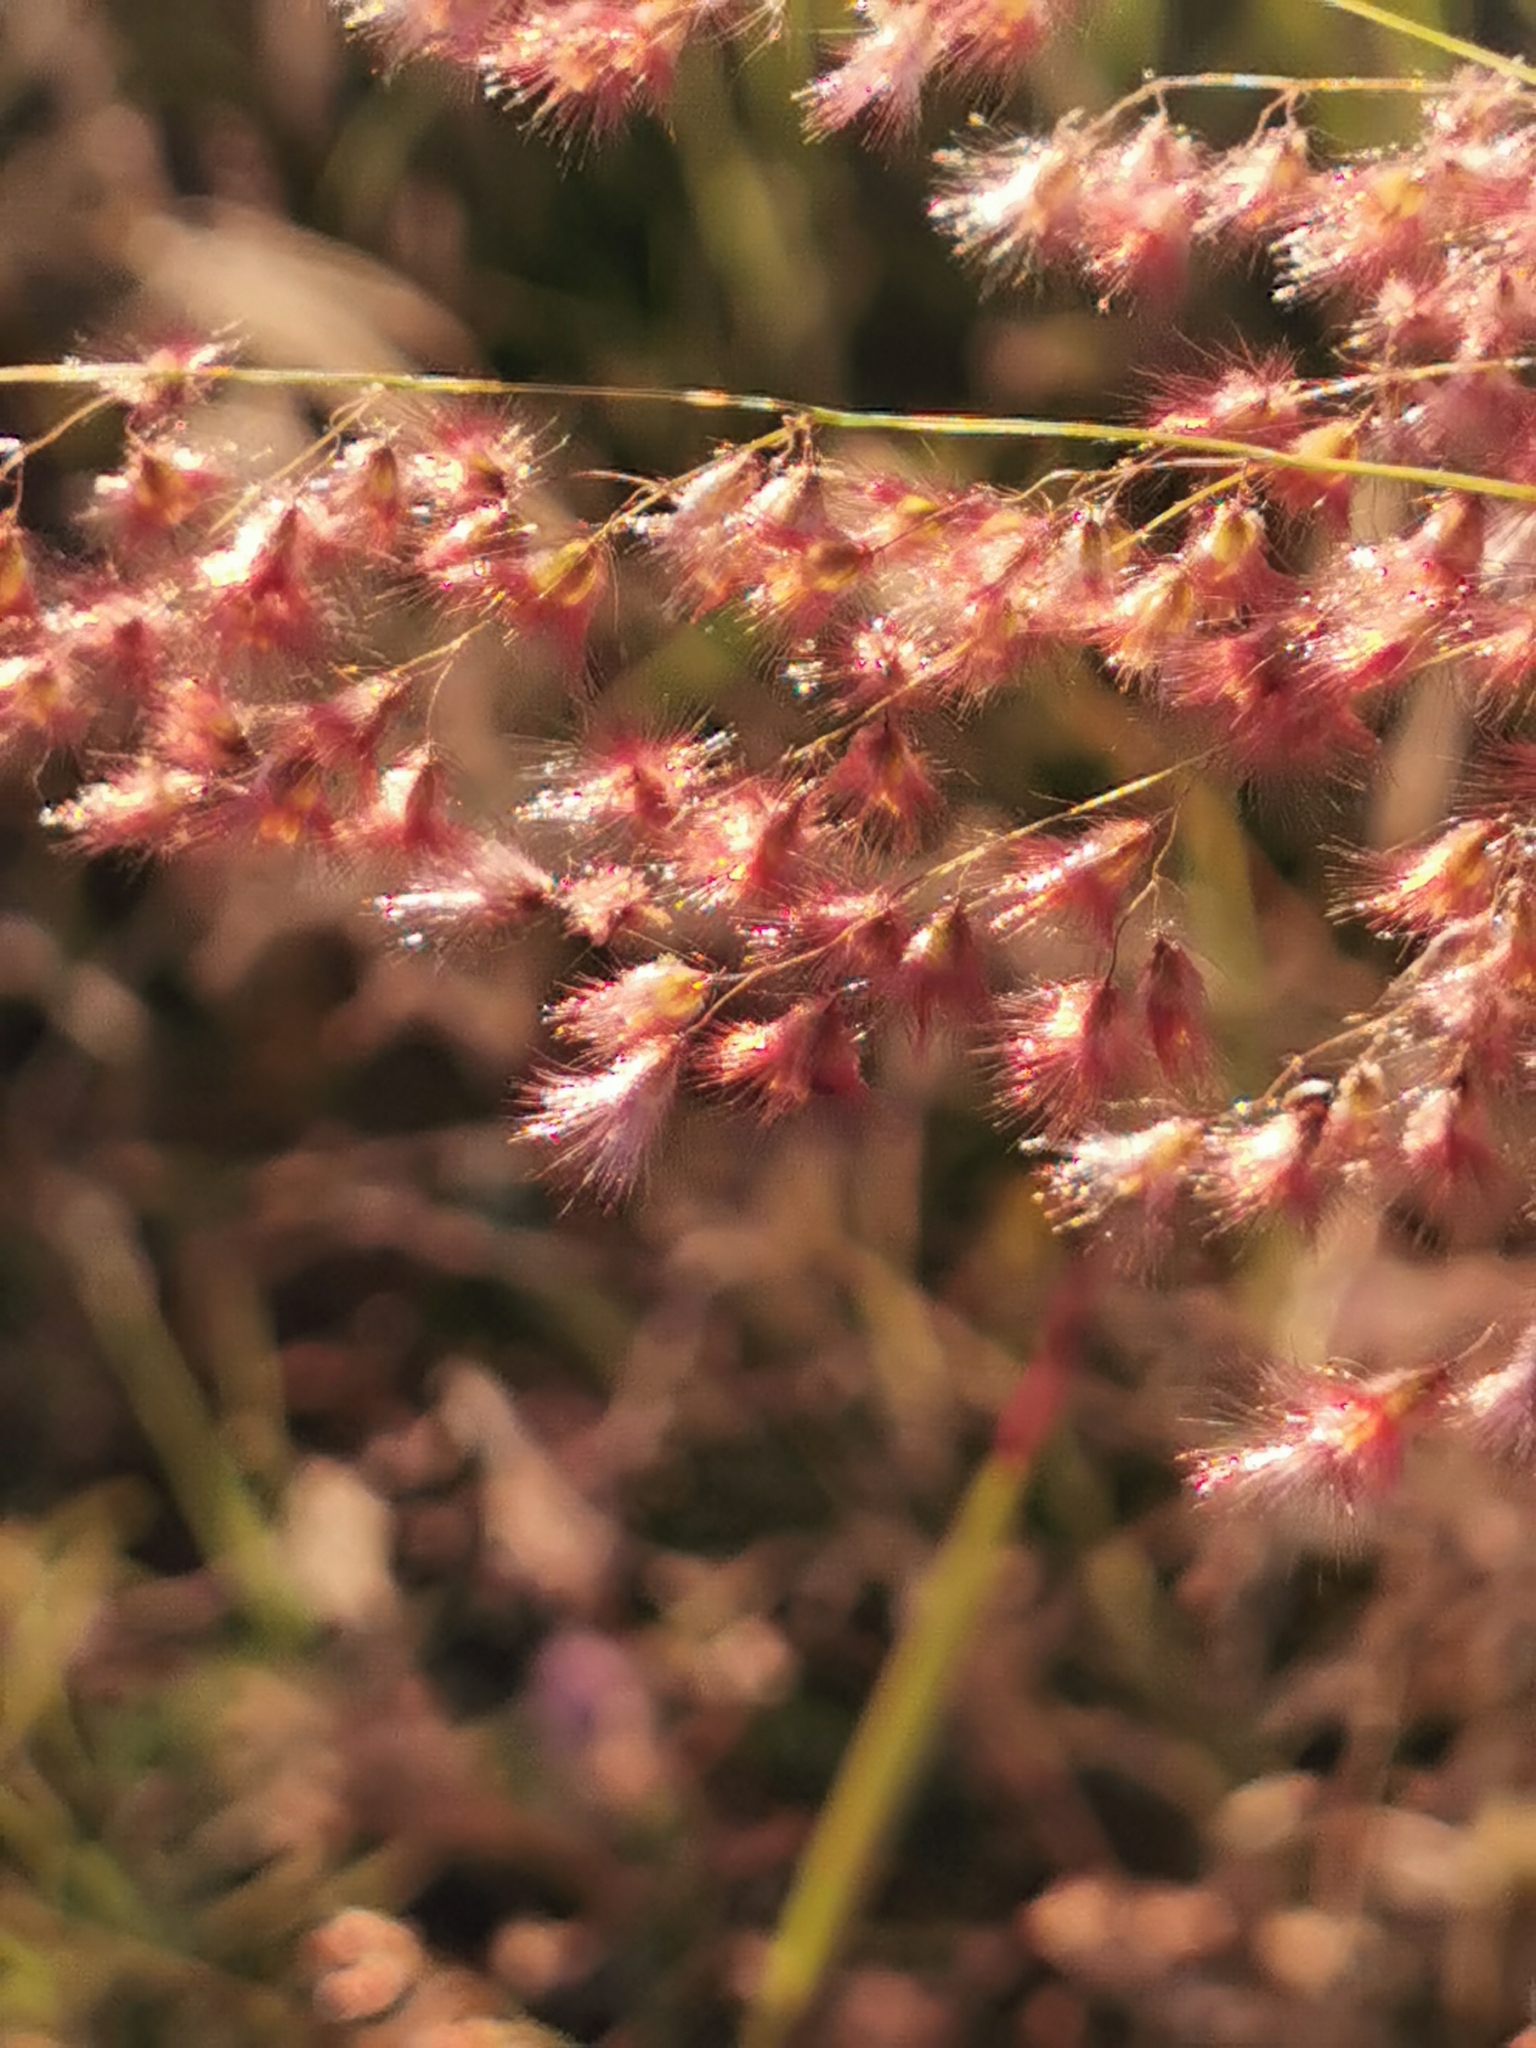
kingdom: Plantae
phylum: Tracheophyta
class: Liliopsida
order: Poales
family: Poaceae
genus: Melinis
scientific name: Melinis repens
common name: Rose natal grass
